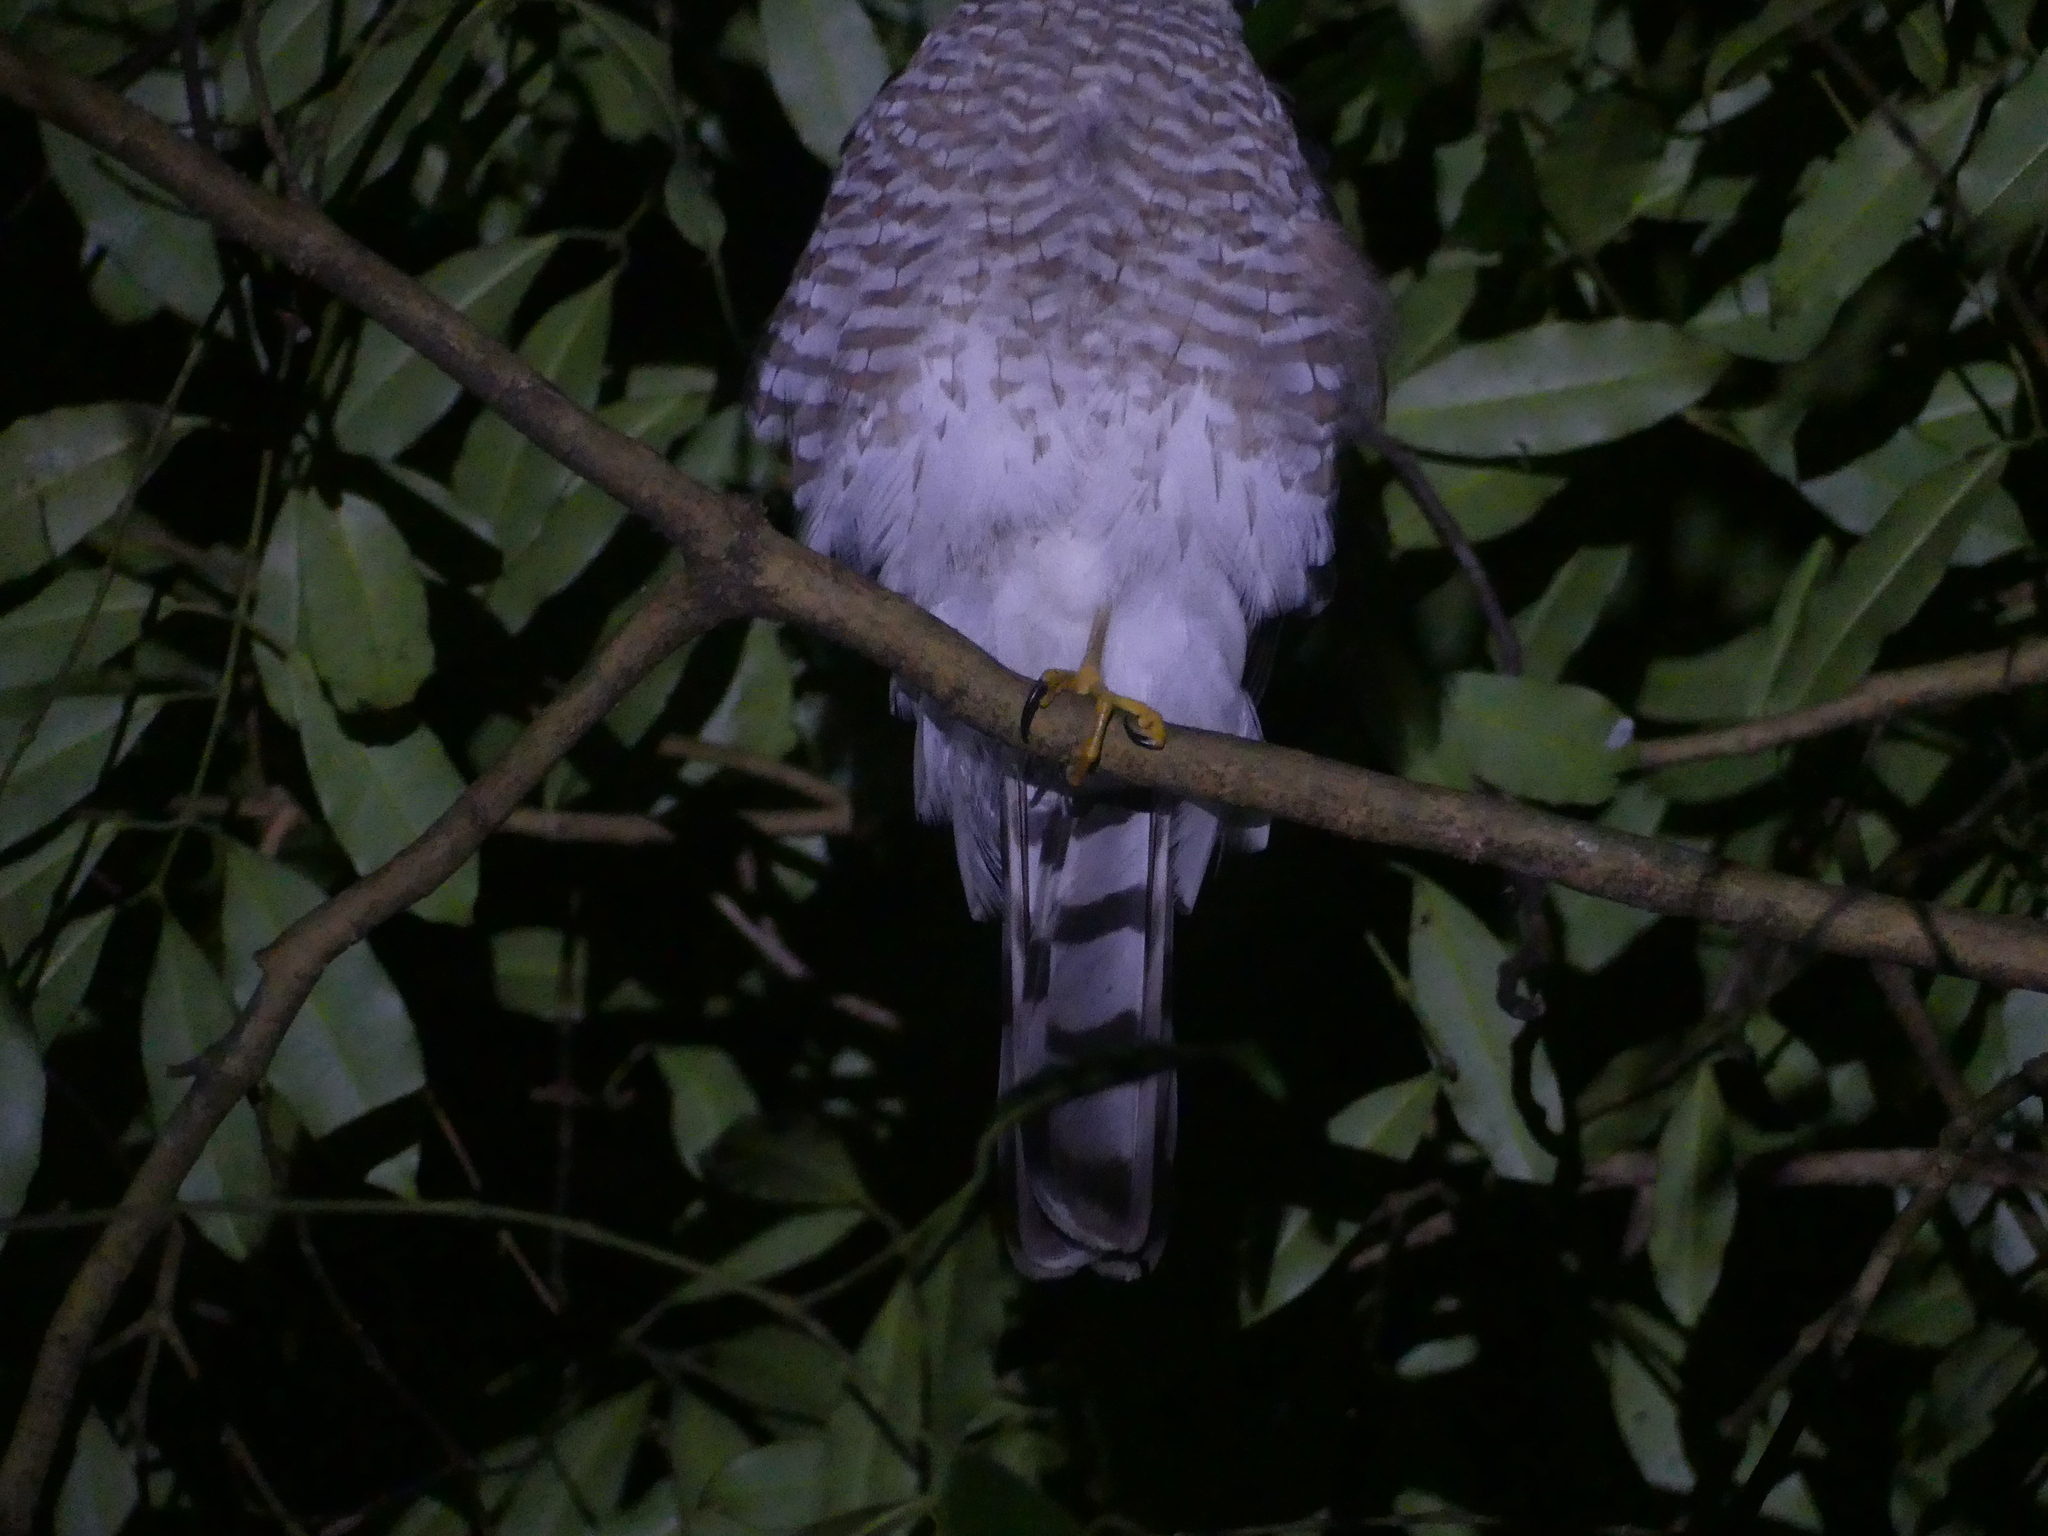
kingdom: Animalia
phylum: Chordata
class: Aves
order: Accipitriformes
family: Accipitridae
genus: Accipiter
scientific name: Accipiter striatus
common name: Sharp-shinned hawk
